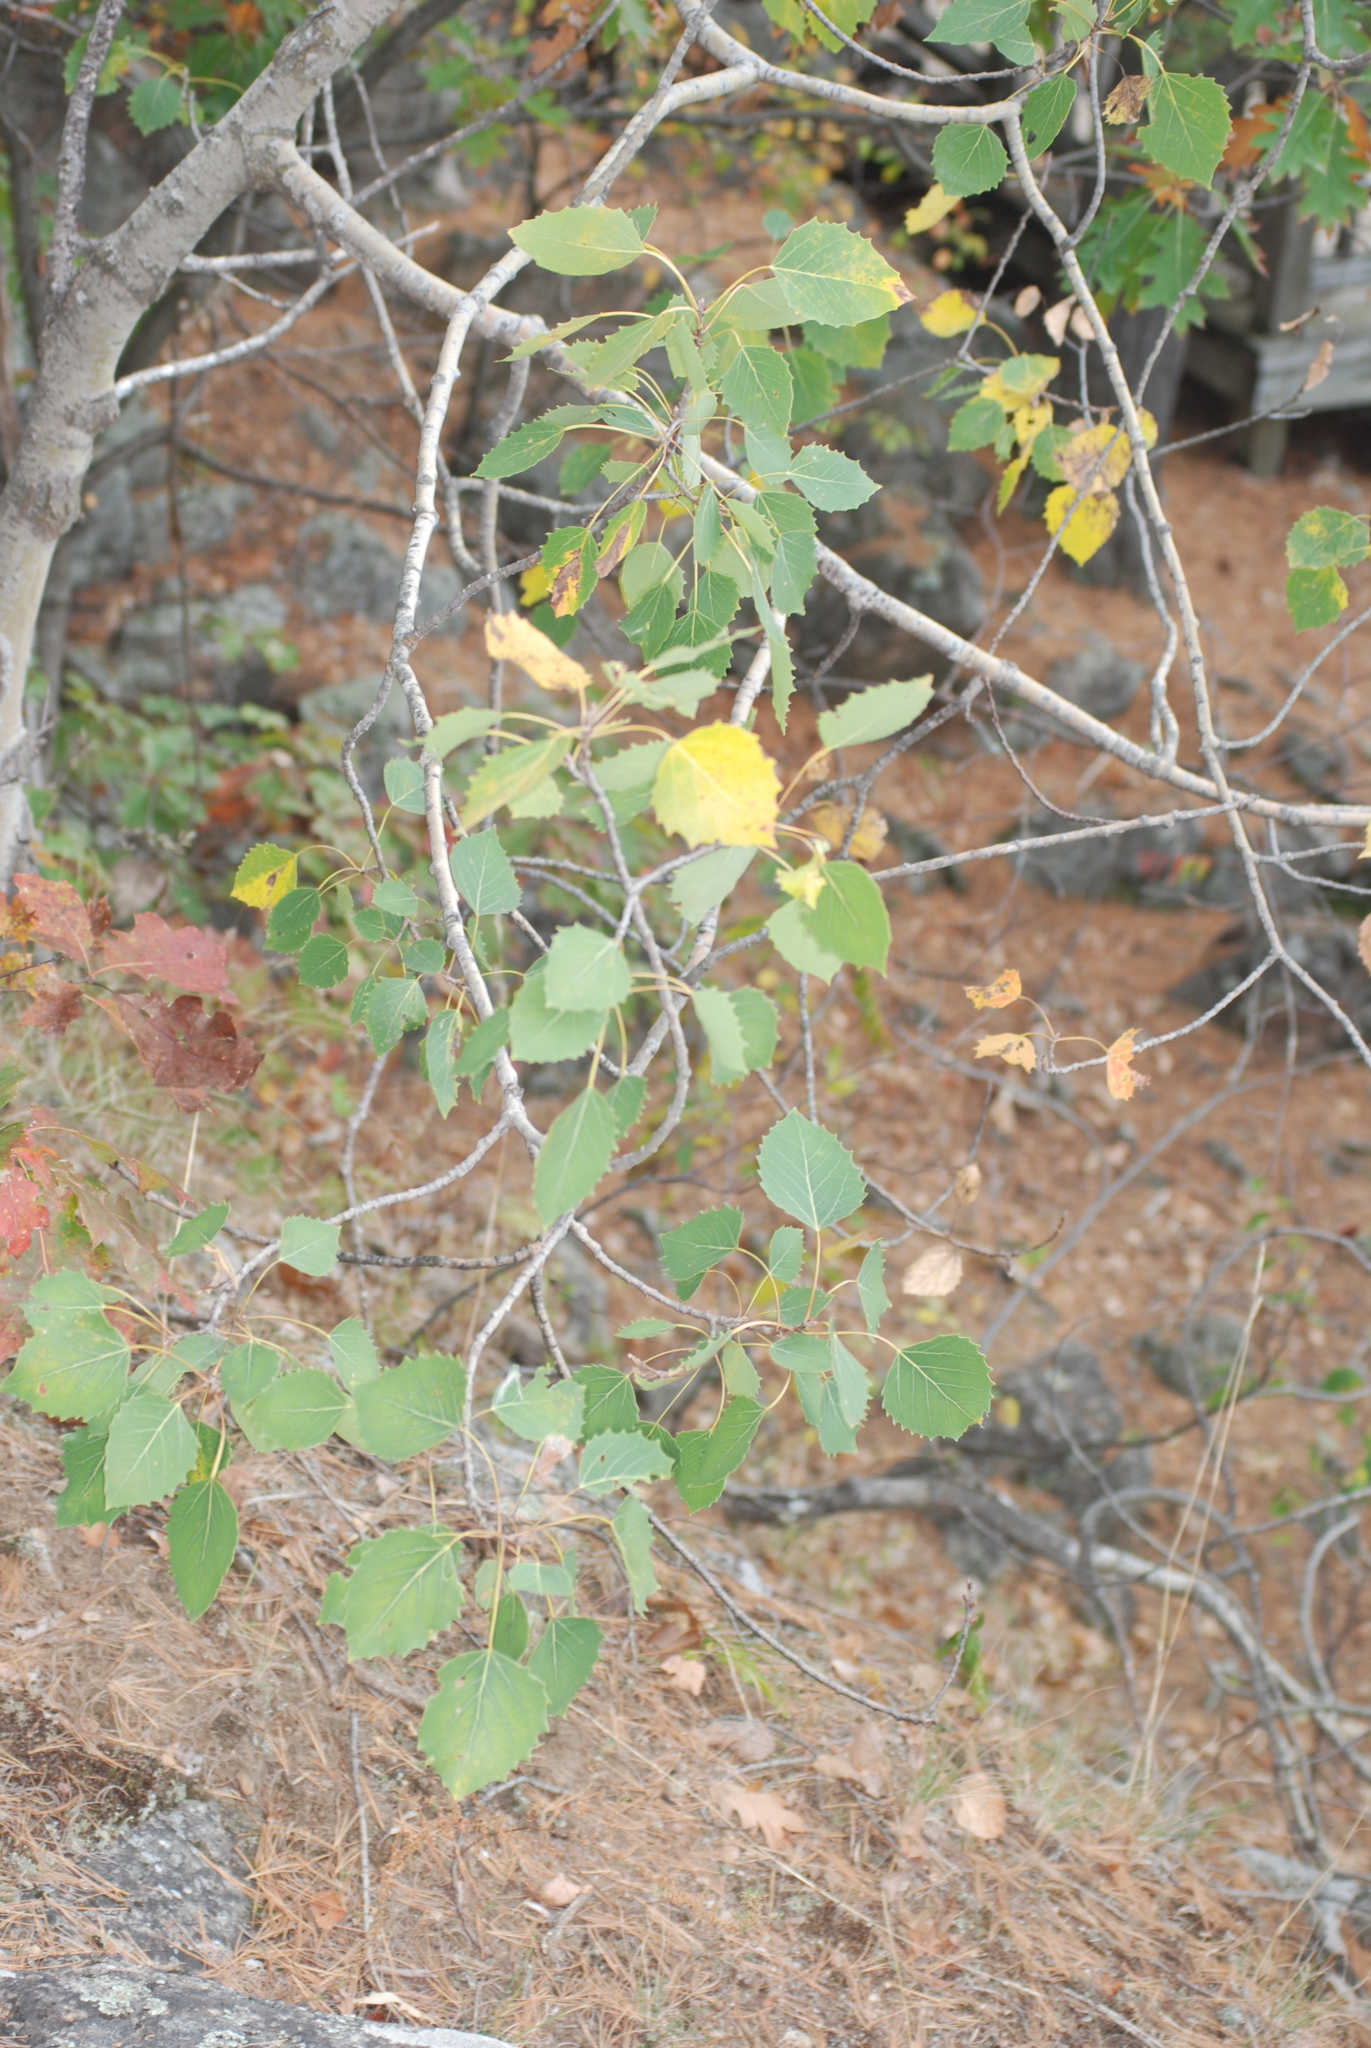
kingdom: Plantae
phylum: Tracheophyta
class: Magnoliopsida
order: Malpighiales
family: Salicaceae
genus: Populus
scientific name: Populus grandidentata
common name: Bigtooth aspen
